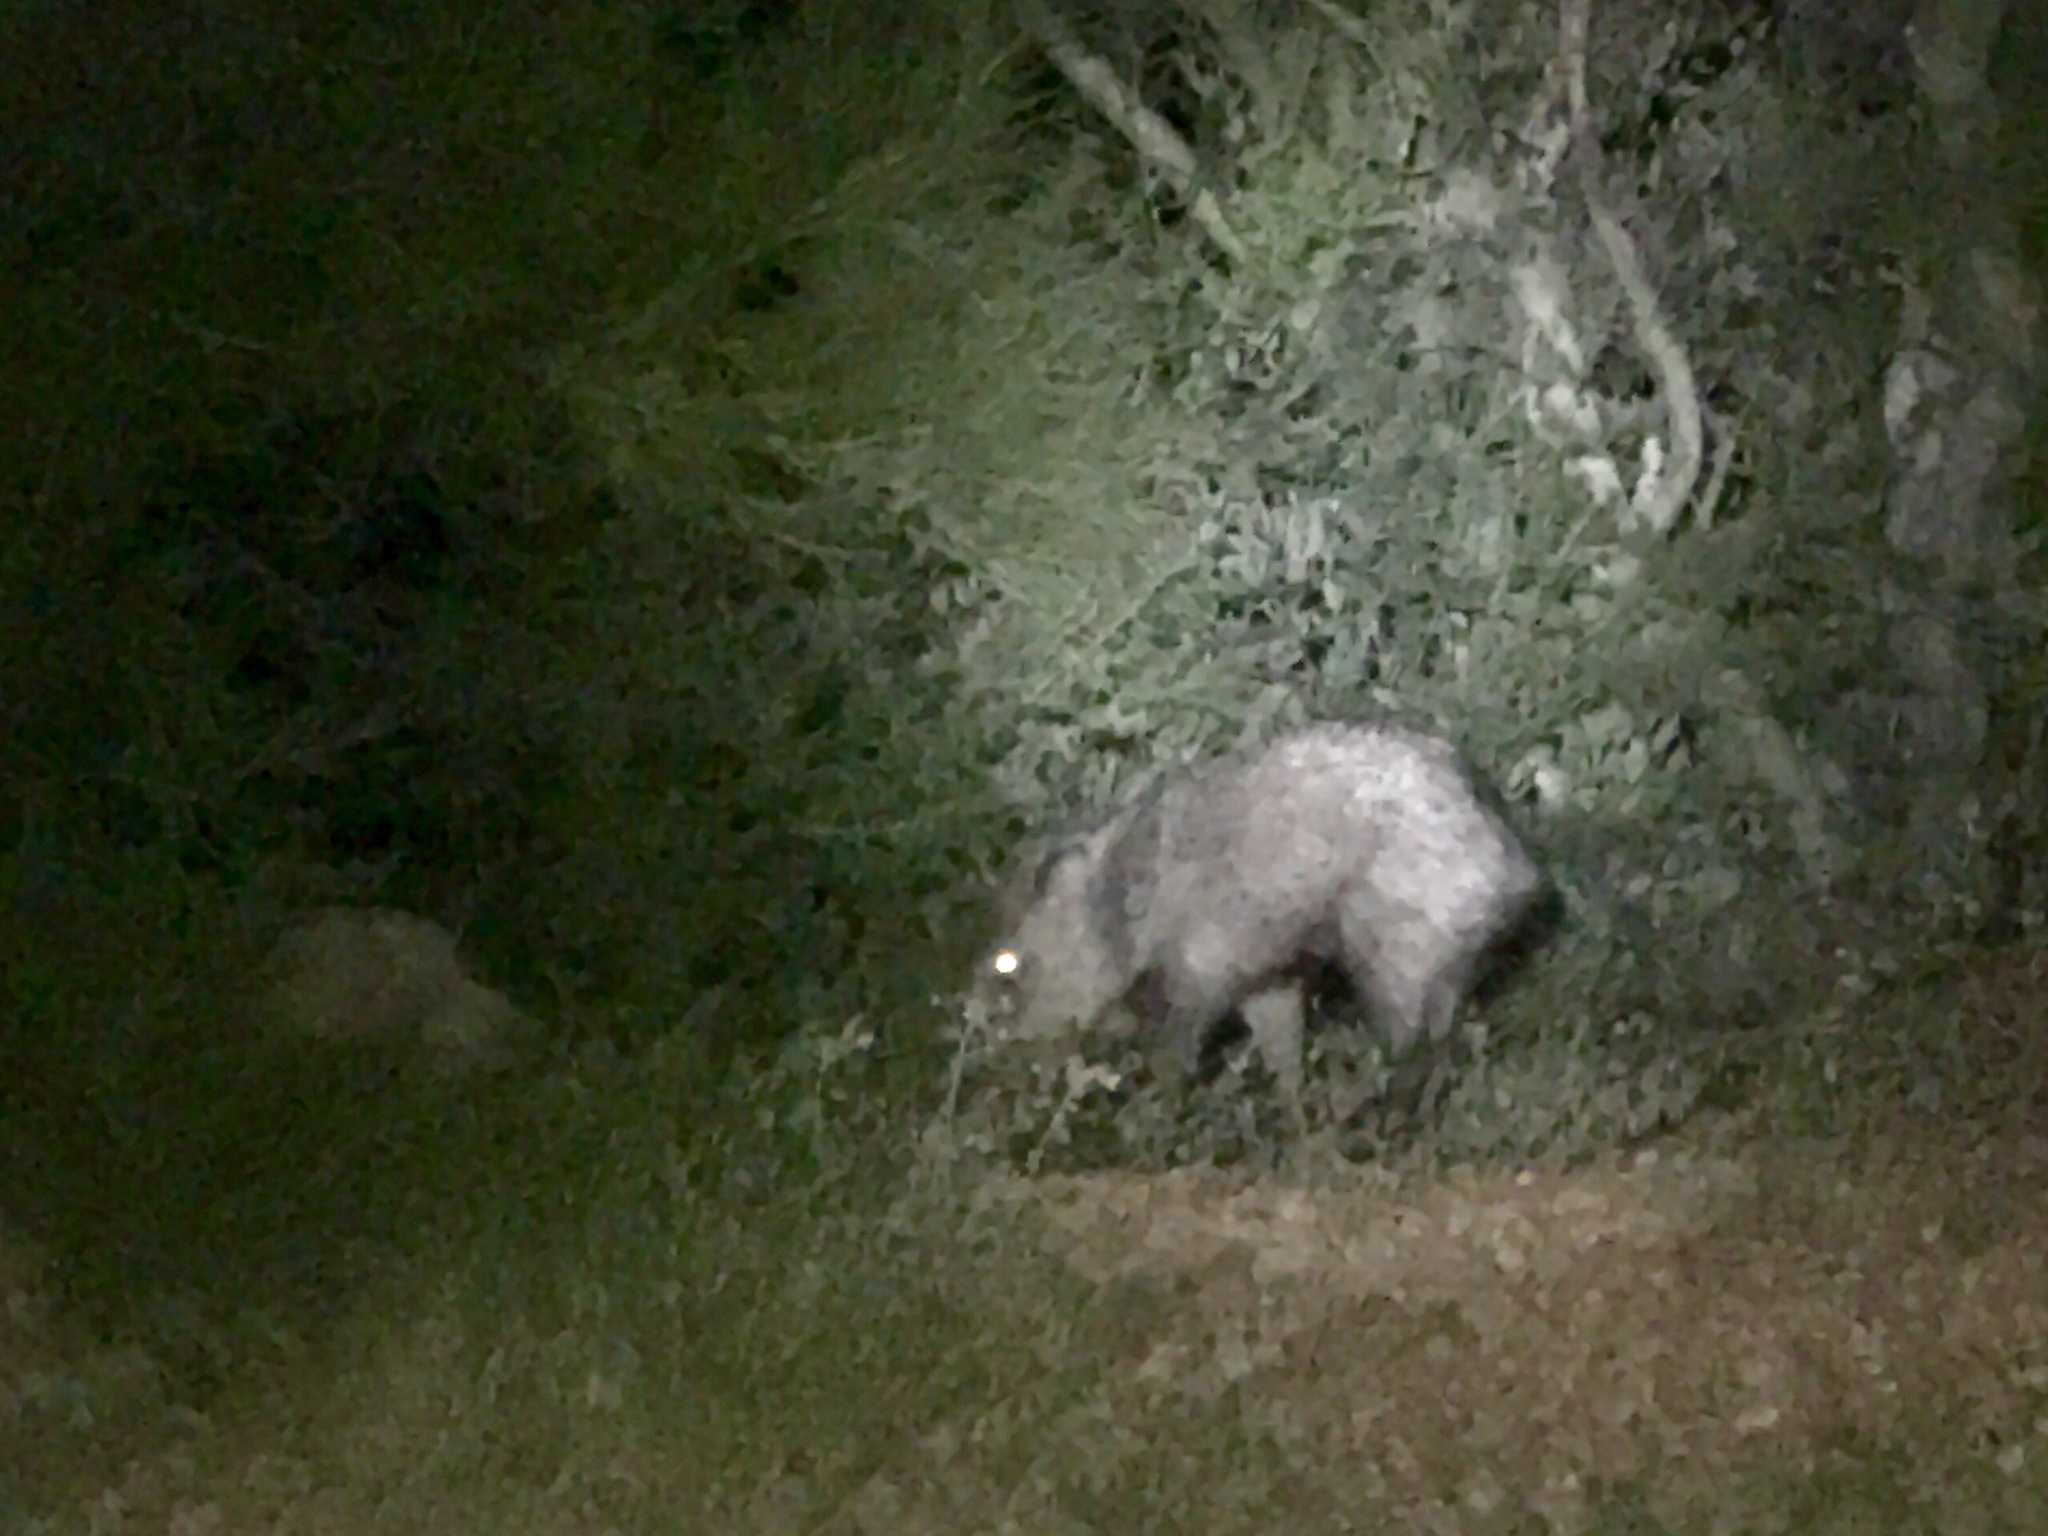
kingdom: Animalia
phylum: Chordata
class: Mammalia
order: Artiodactyla
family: Tayassuidae
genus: Pecari
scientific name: Pecari tajacu
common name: Collared peccary
